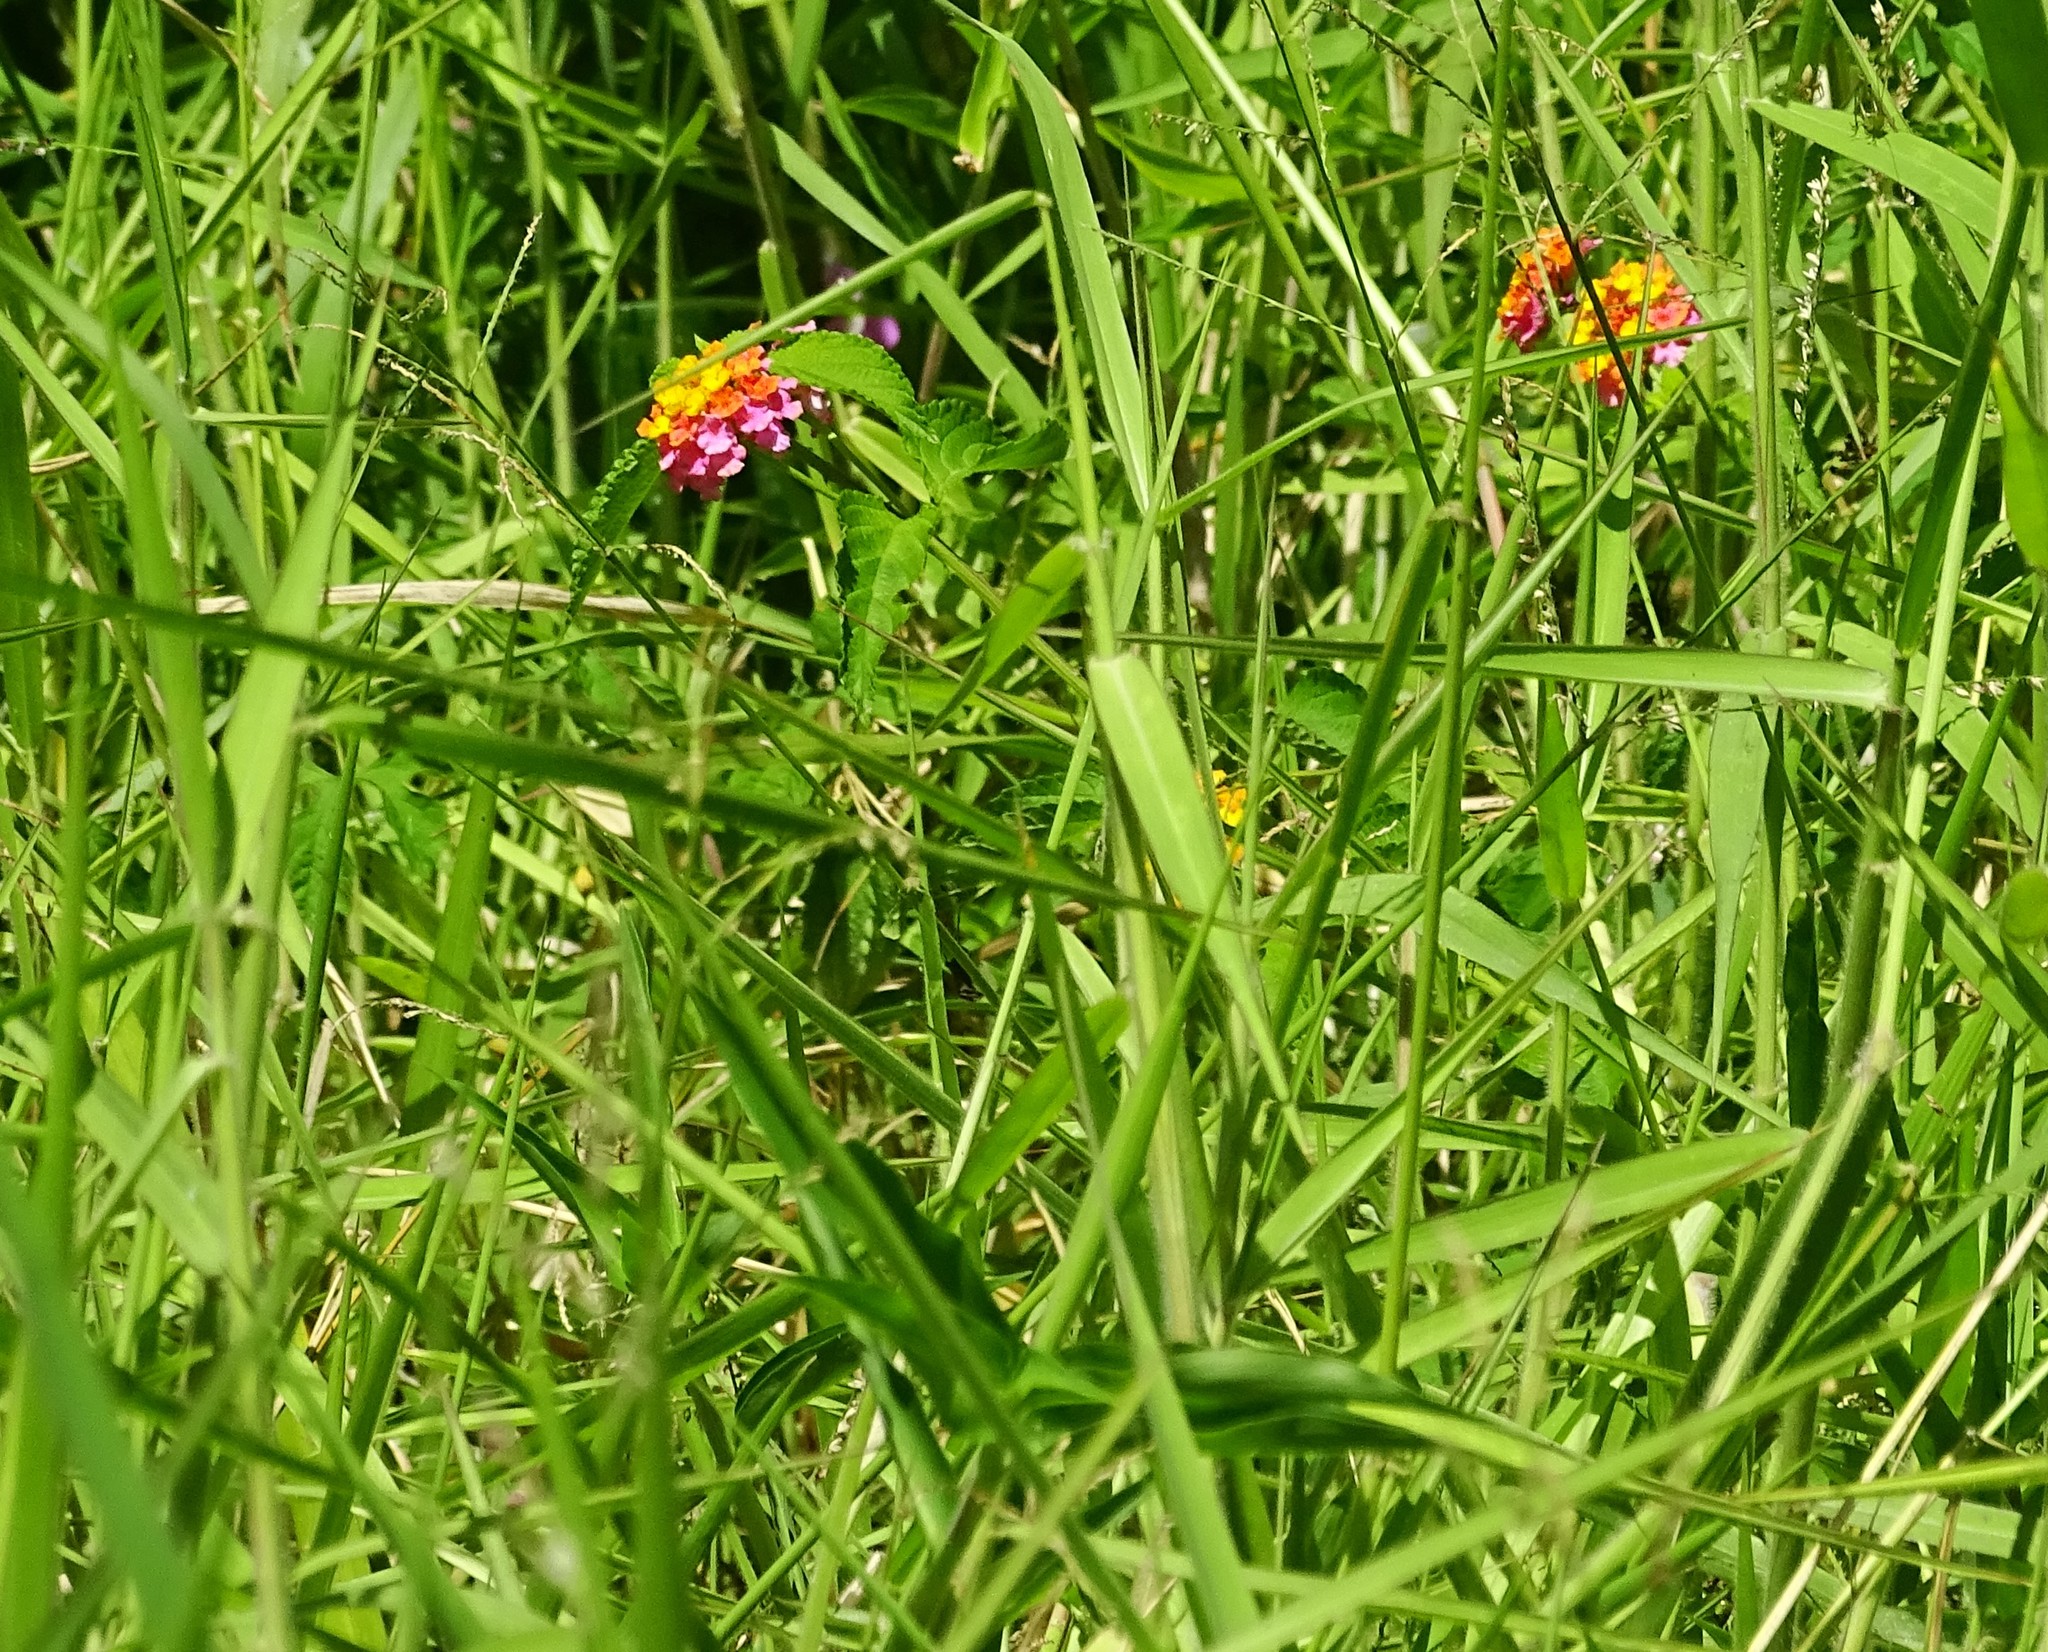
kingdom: Plantae
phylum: Tracheophyta
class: Magnoliopsida
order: Lamiales
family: Verbenaceae
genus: Lantana
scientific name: Lantana camara
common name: Lantana
